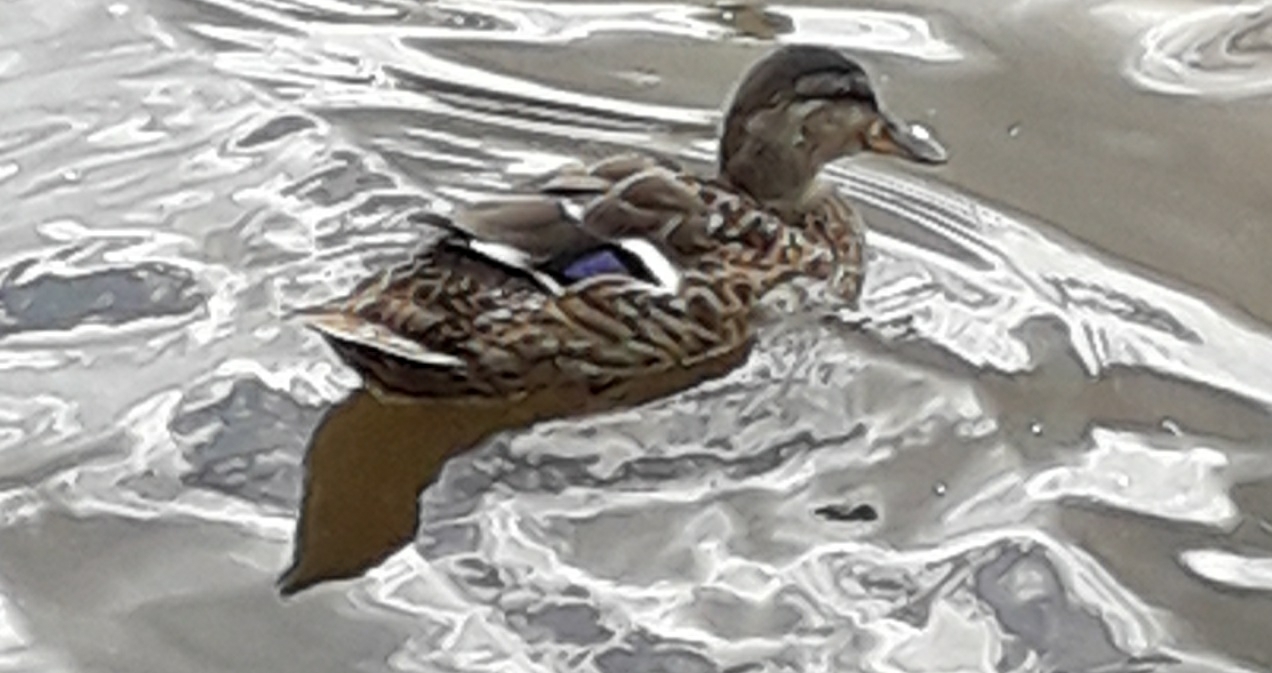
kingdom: Animalia
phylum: Chordata
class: Aves
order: Anseriformes
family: Anatidae
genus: Anas
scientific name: Anas platyrhynchos
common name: Mallard
